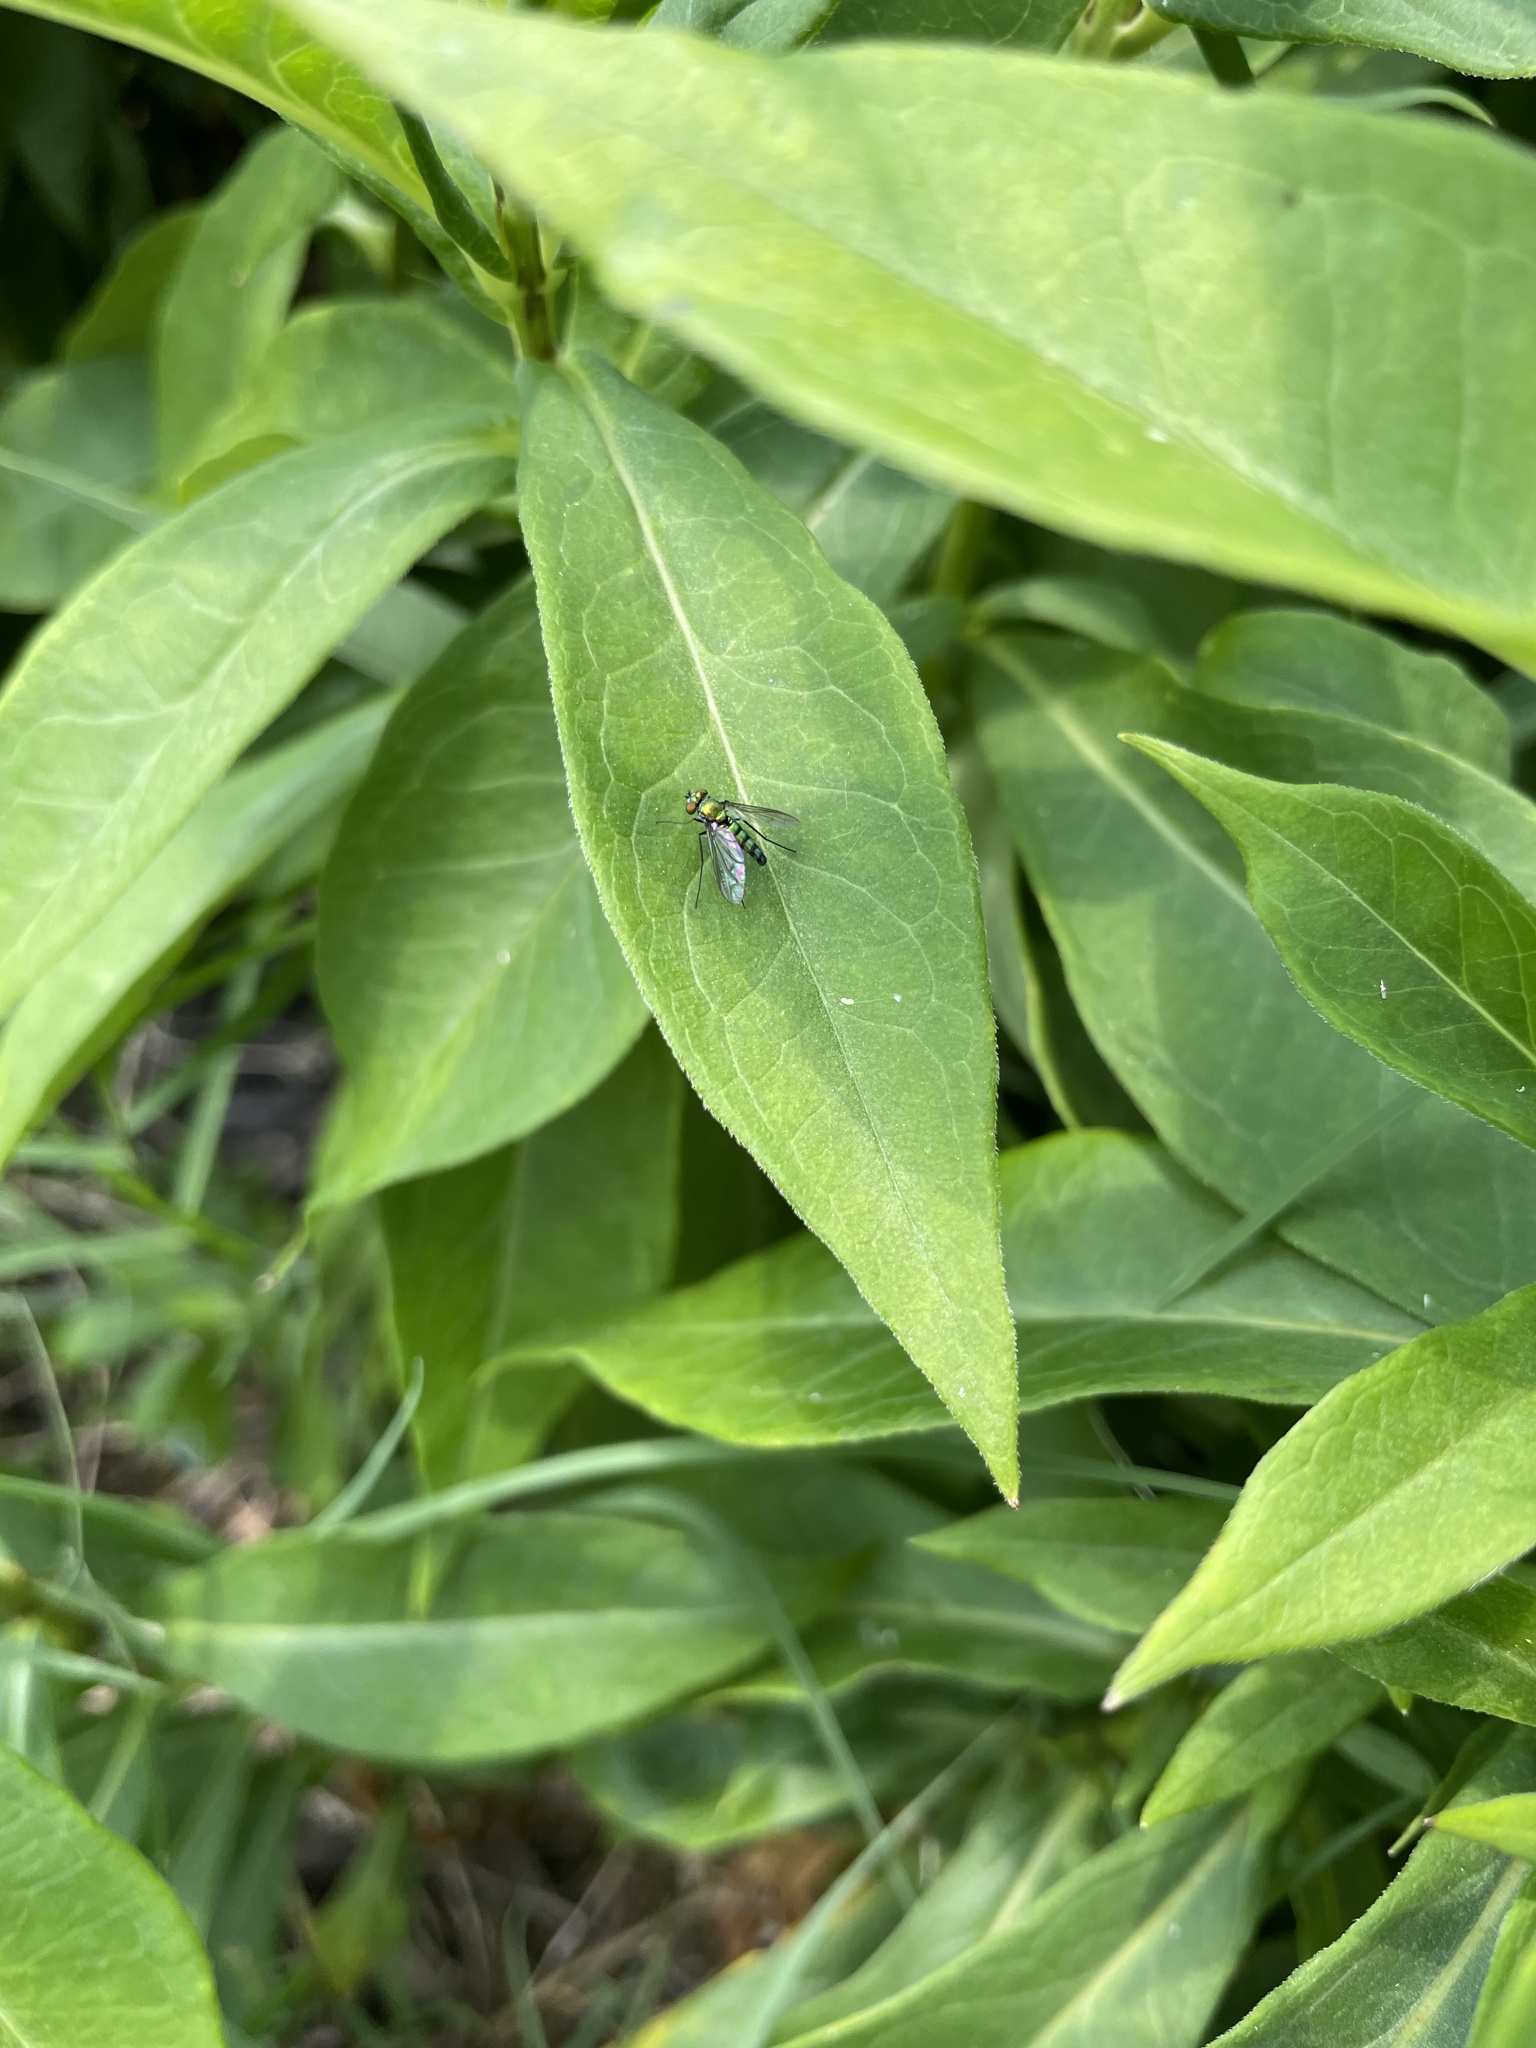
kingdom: Animalia
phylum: Arthropoda
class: Insecta
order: Diptera
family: Dolichopodidae
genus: Condylostylus
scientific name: Condylostylus longicornis
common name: Long-legged fly
